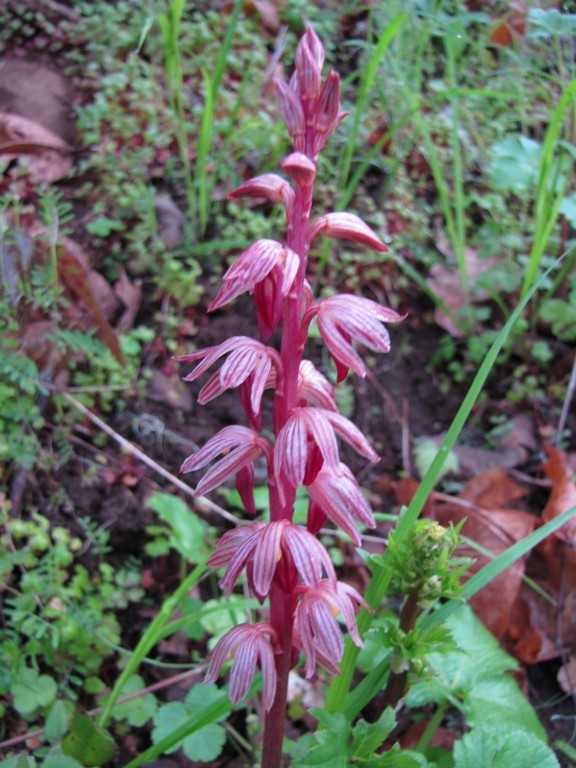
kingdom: Plantae
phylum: Tracheophyta
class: Liliopsida
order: Asparagales
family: Orchidaceae
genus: Corallorhiza
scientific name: Corallorhiza striata
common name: Hooded coralroot
